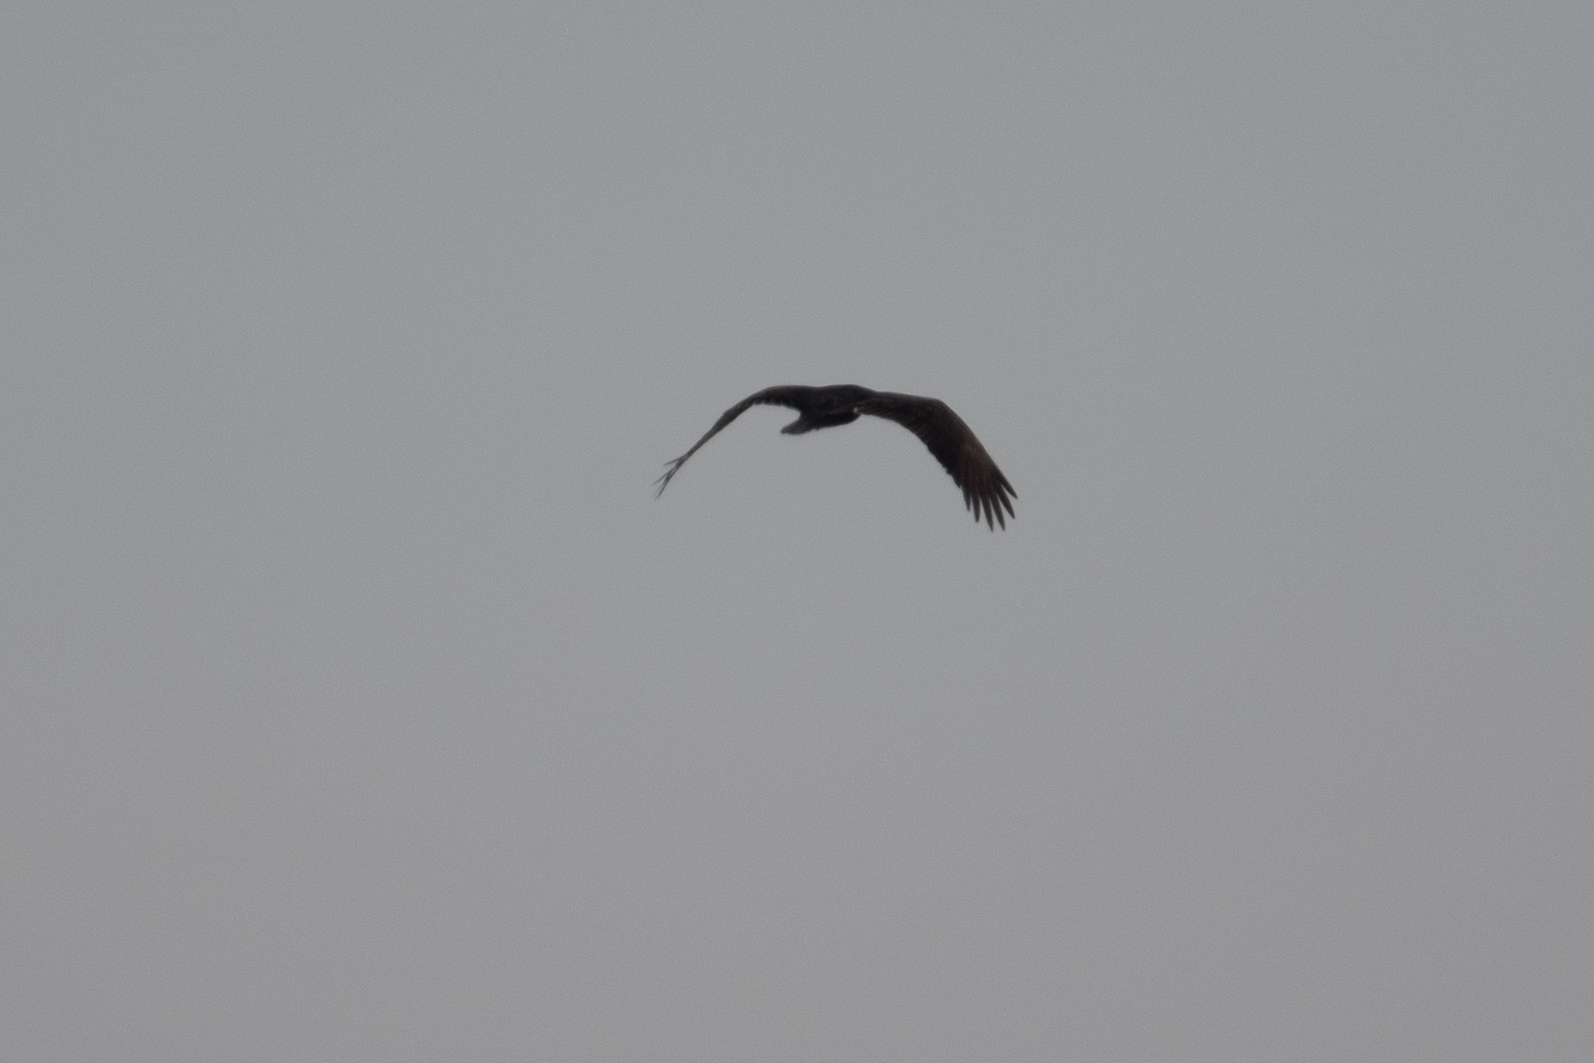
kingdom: Animalia
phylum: Chordata
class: Aves
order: Accipitriformes
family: Cathartidae
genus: Cathartes
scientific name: Cathartes aura
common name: Turkey vulture
